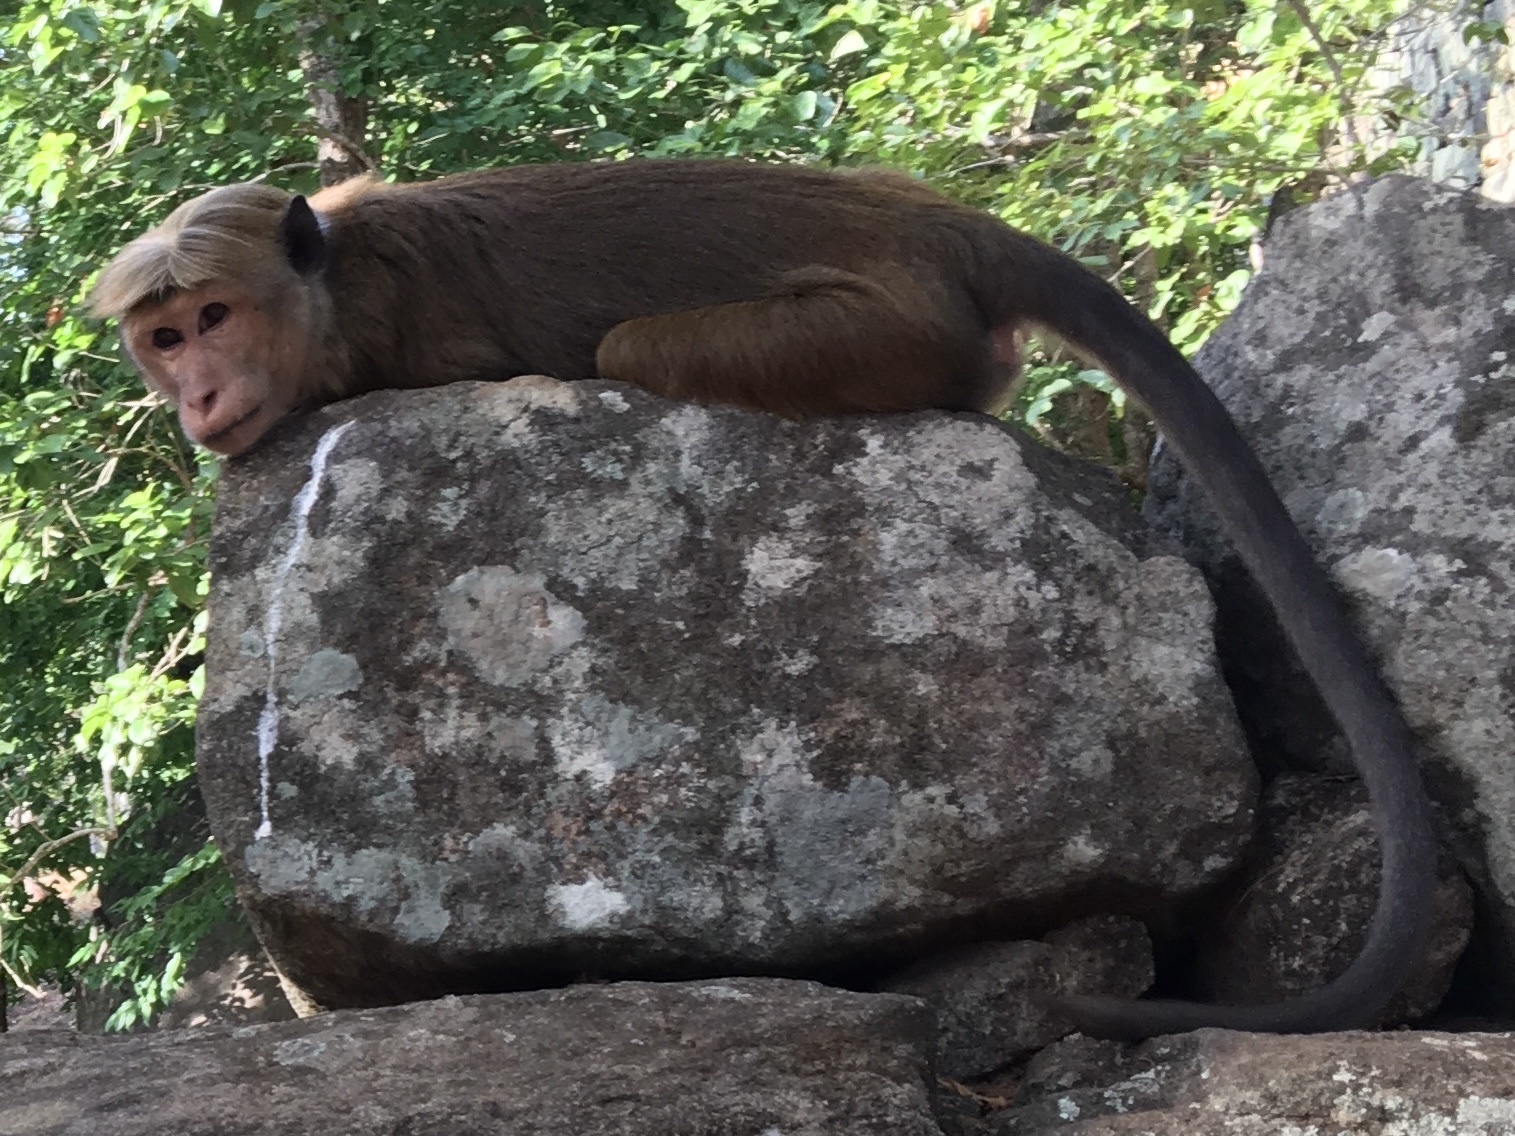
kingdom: Animalia
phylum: Chordata
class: Mammalia
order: Primates
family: Cercopithecidae
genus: Macaca
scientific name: Macaca sinica
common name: Toque macaque
